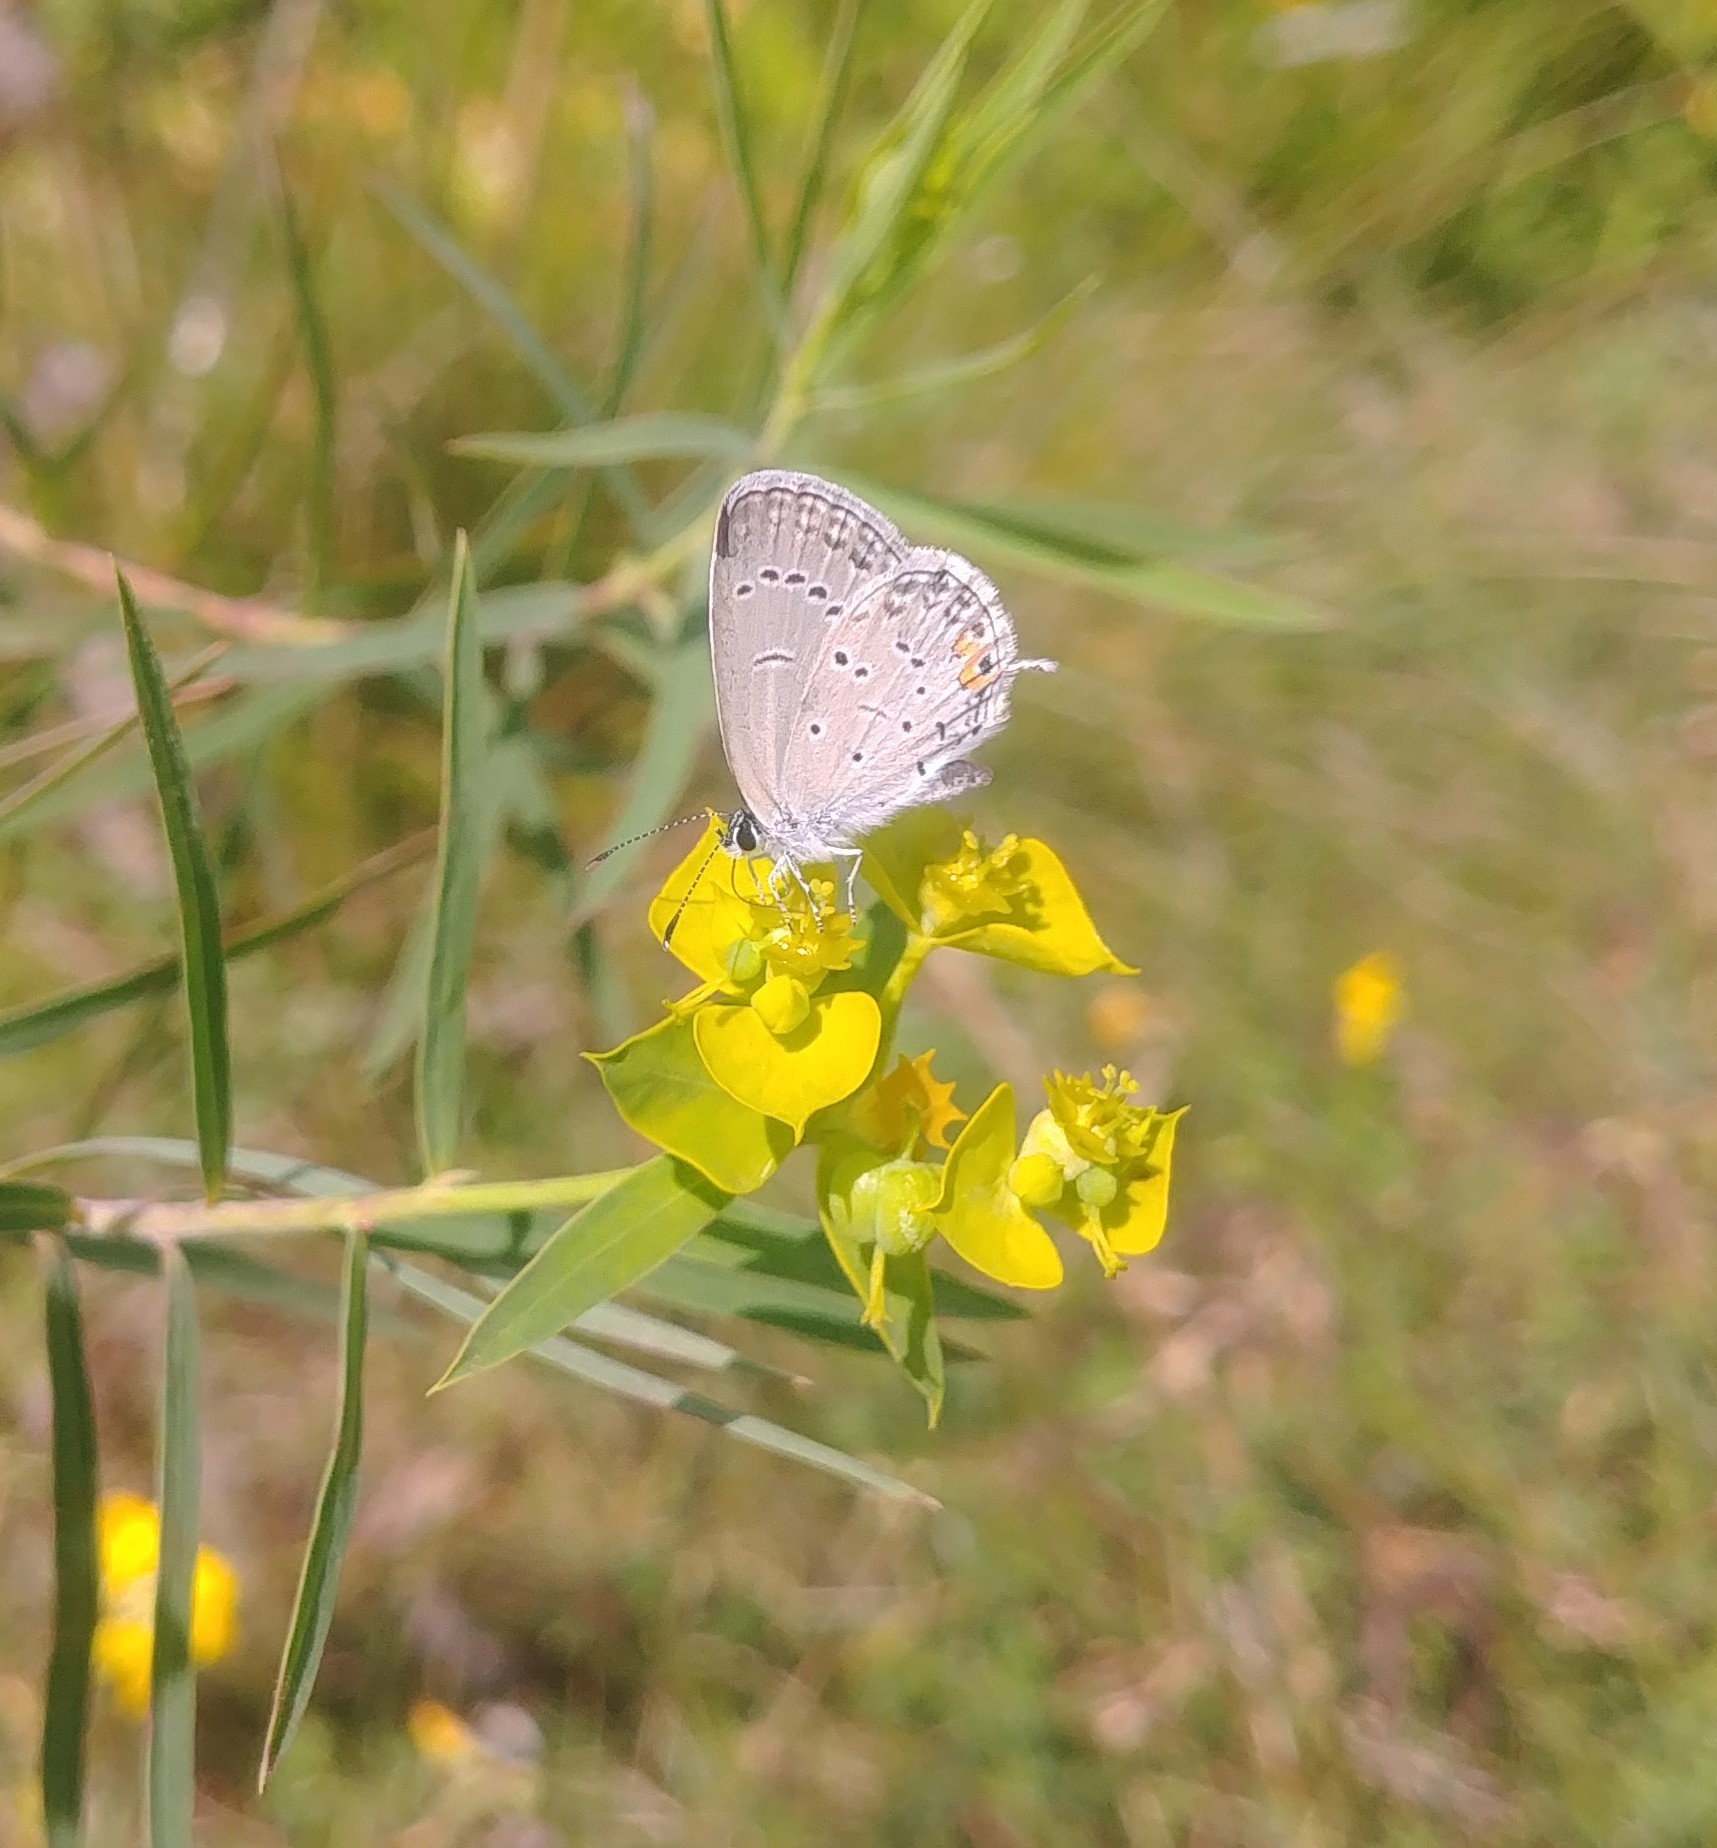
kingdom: Animalia
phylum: Arthropoda
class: Insecta
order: Lepidoptera
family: Lycaenidae
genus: Elkalyce
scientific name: Elkalyce comyntas
